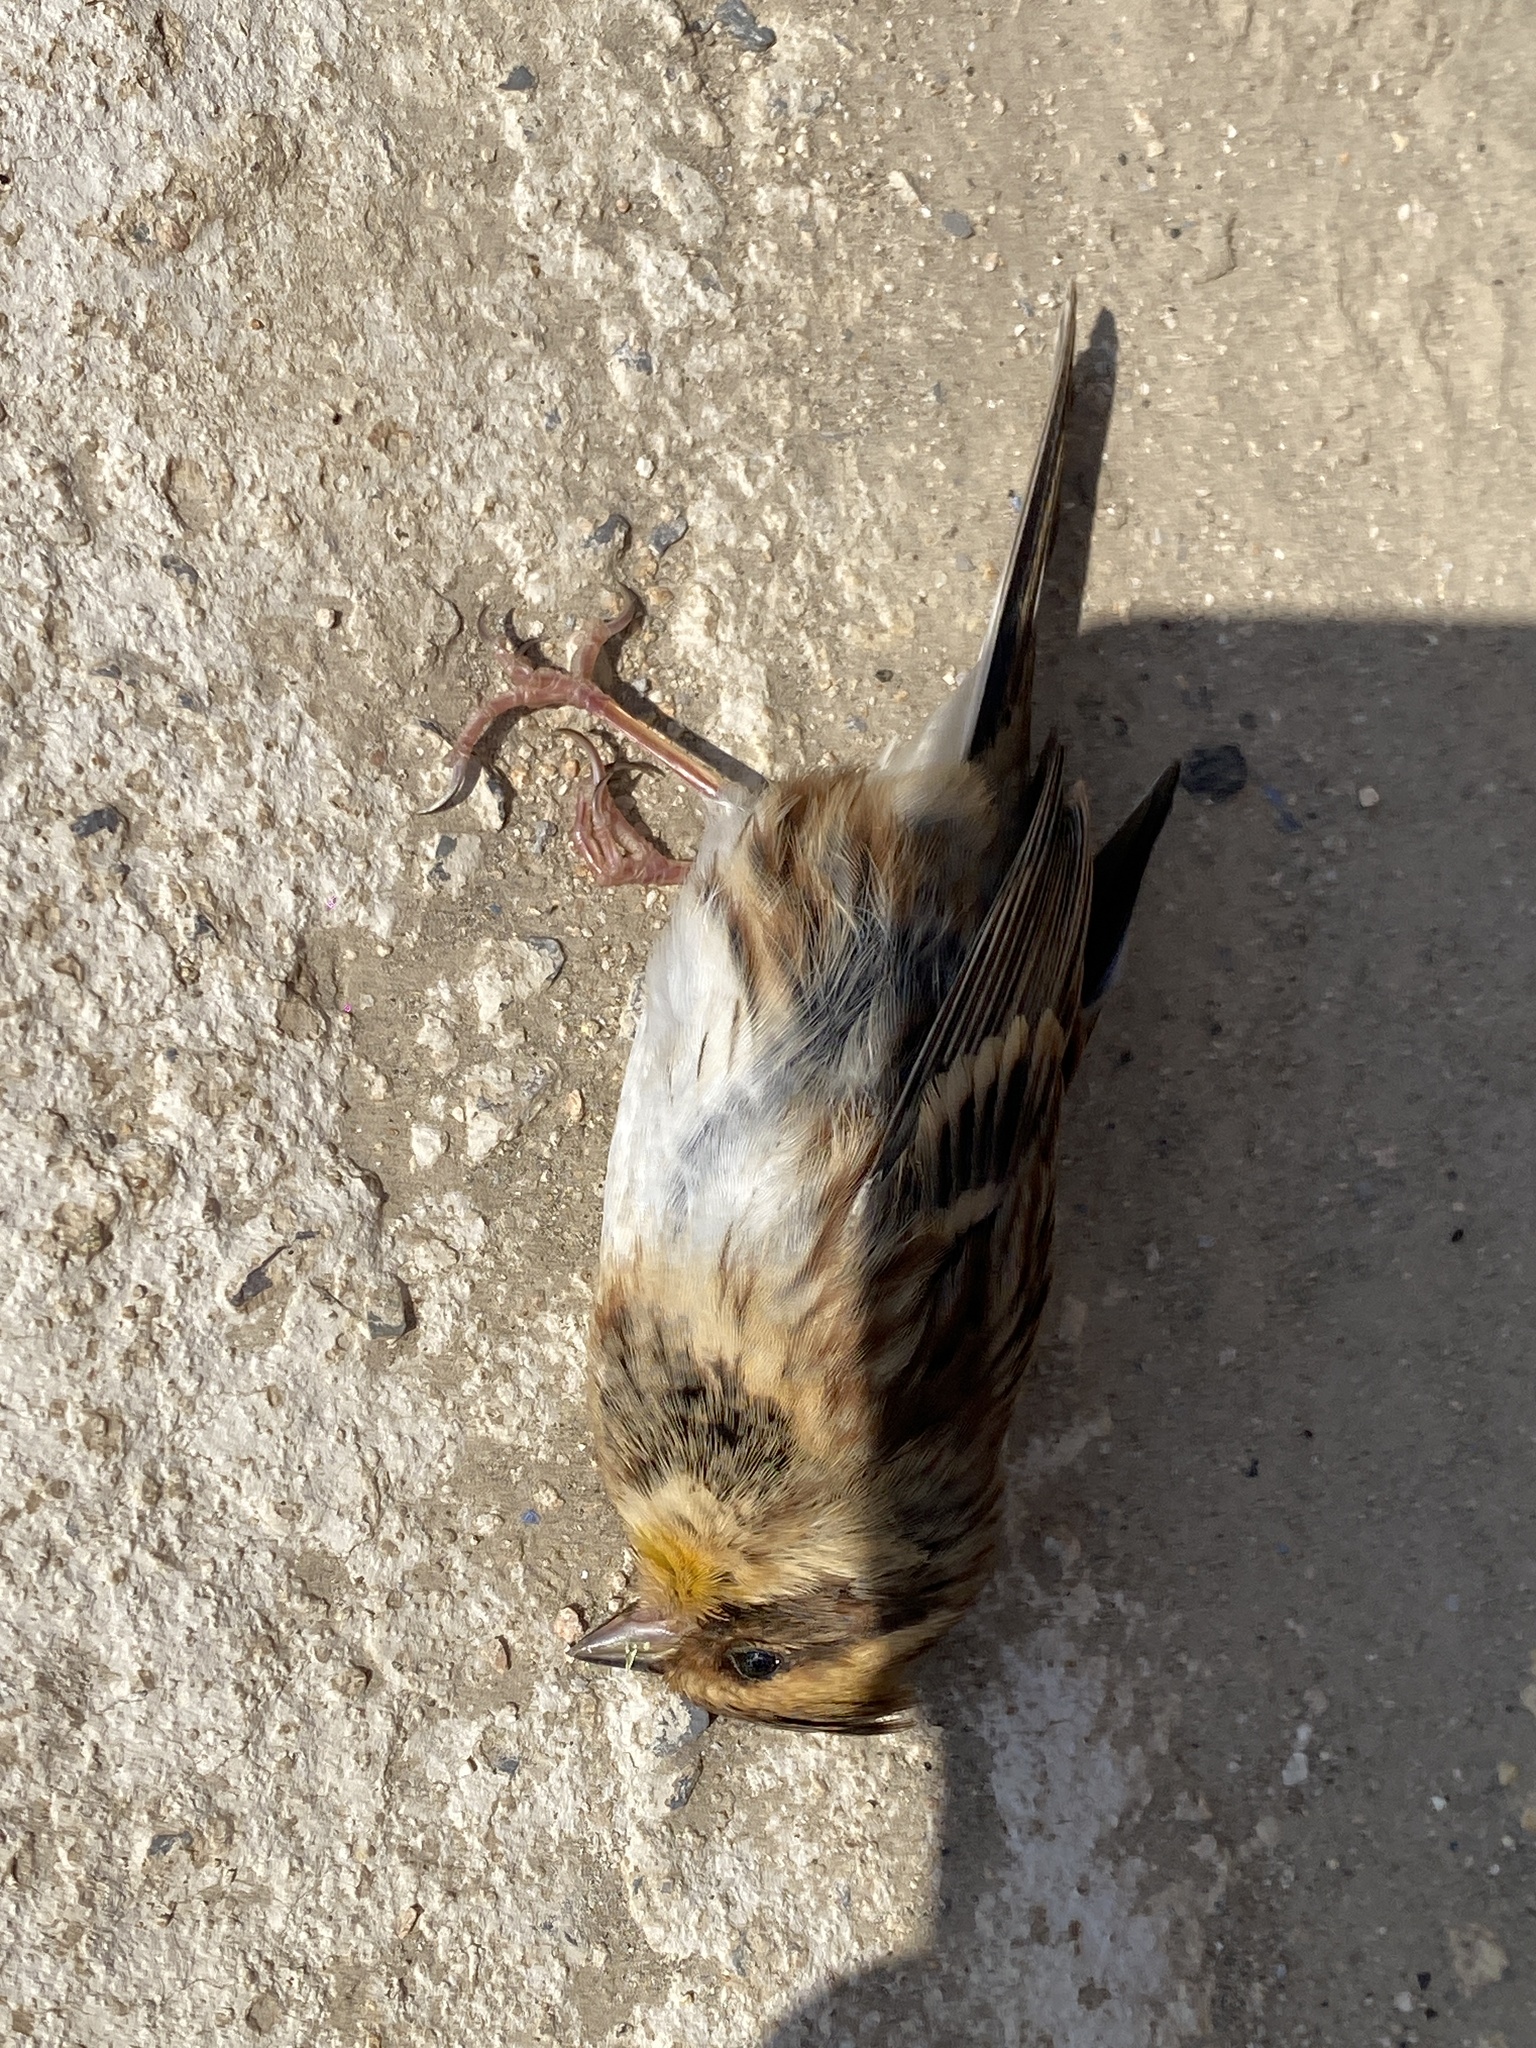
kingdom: Animalia
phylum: Chordata
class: Aves
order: Passeriformes
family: Emberizidae
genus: Emberiza
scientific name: Emberiza elegans
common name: Yellow-throated bunting
